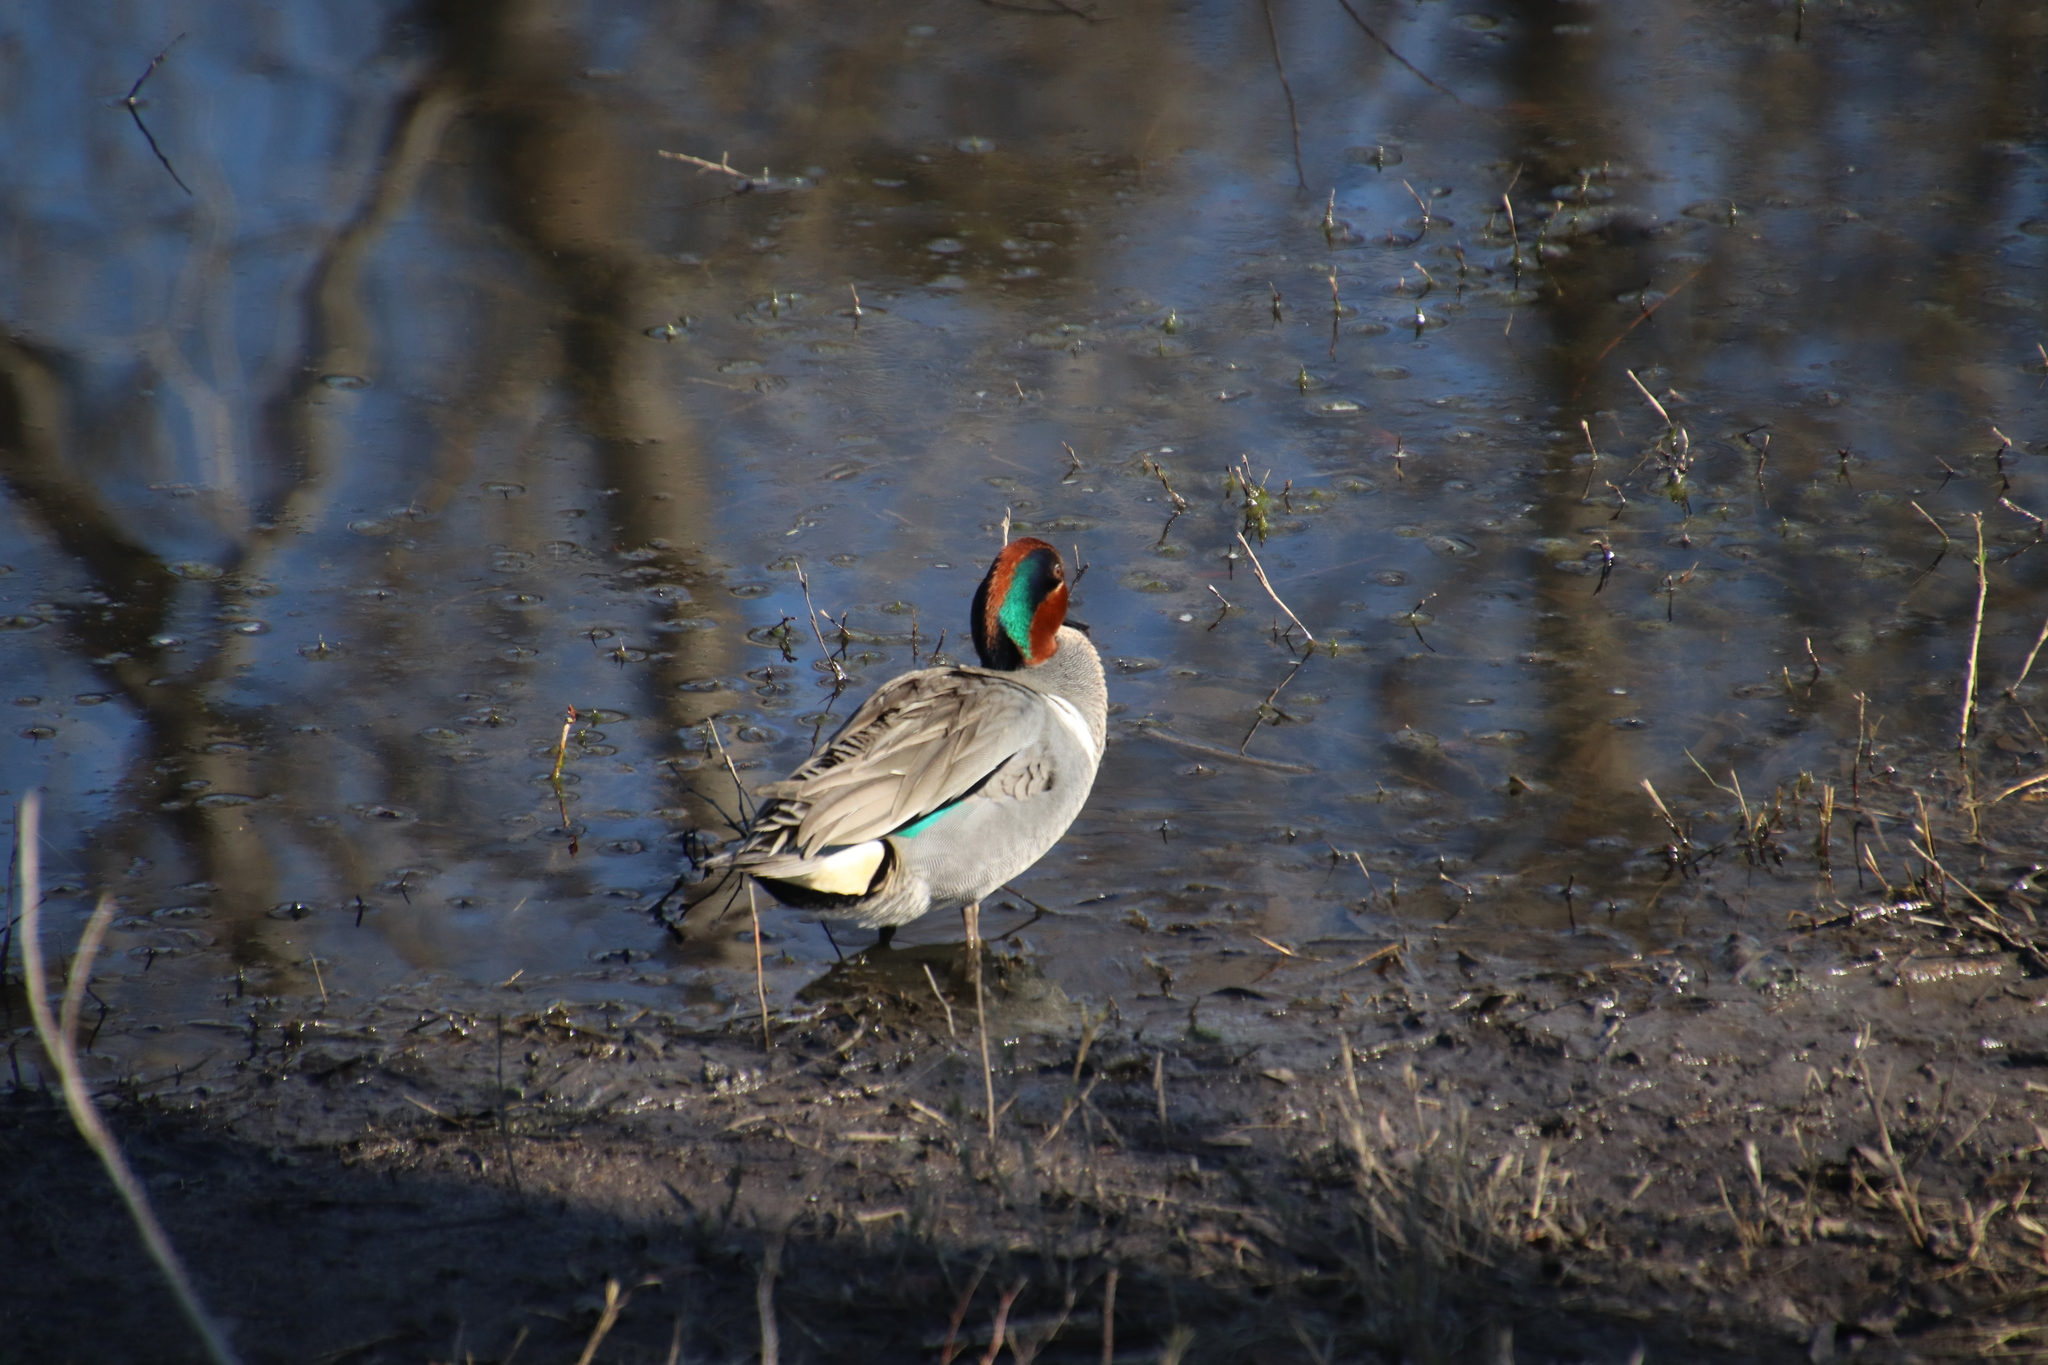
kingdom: Animalia
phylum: Chordata
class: Aves
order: Anseriformes
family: Anatidae
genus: Anas
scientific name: Anas crecca
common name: Eurasian teal
